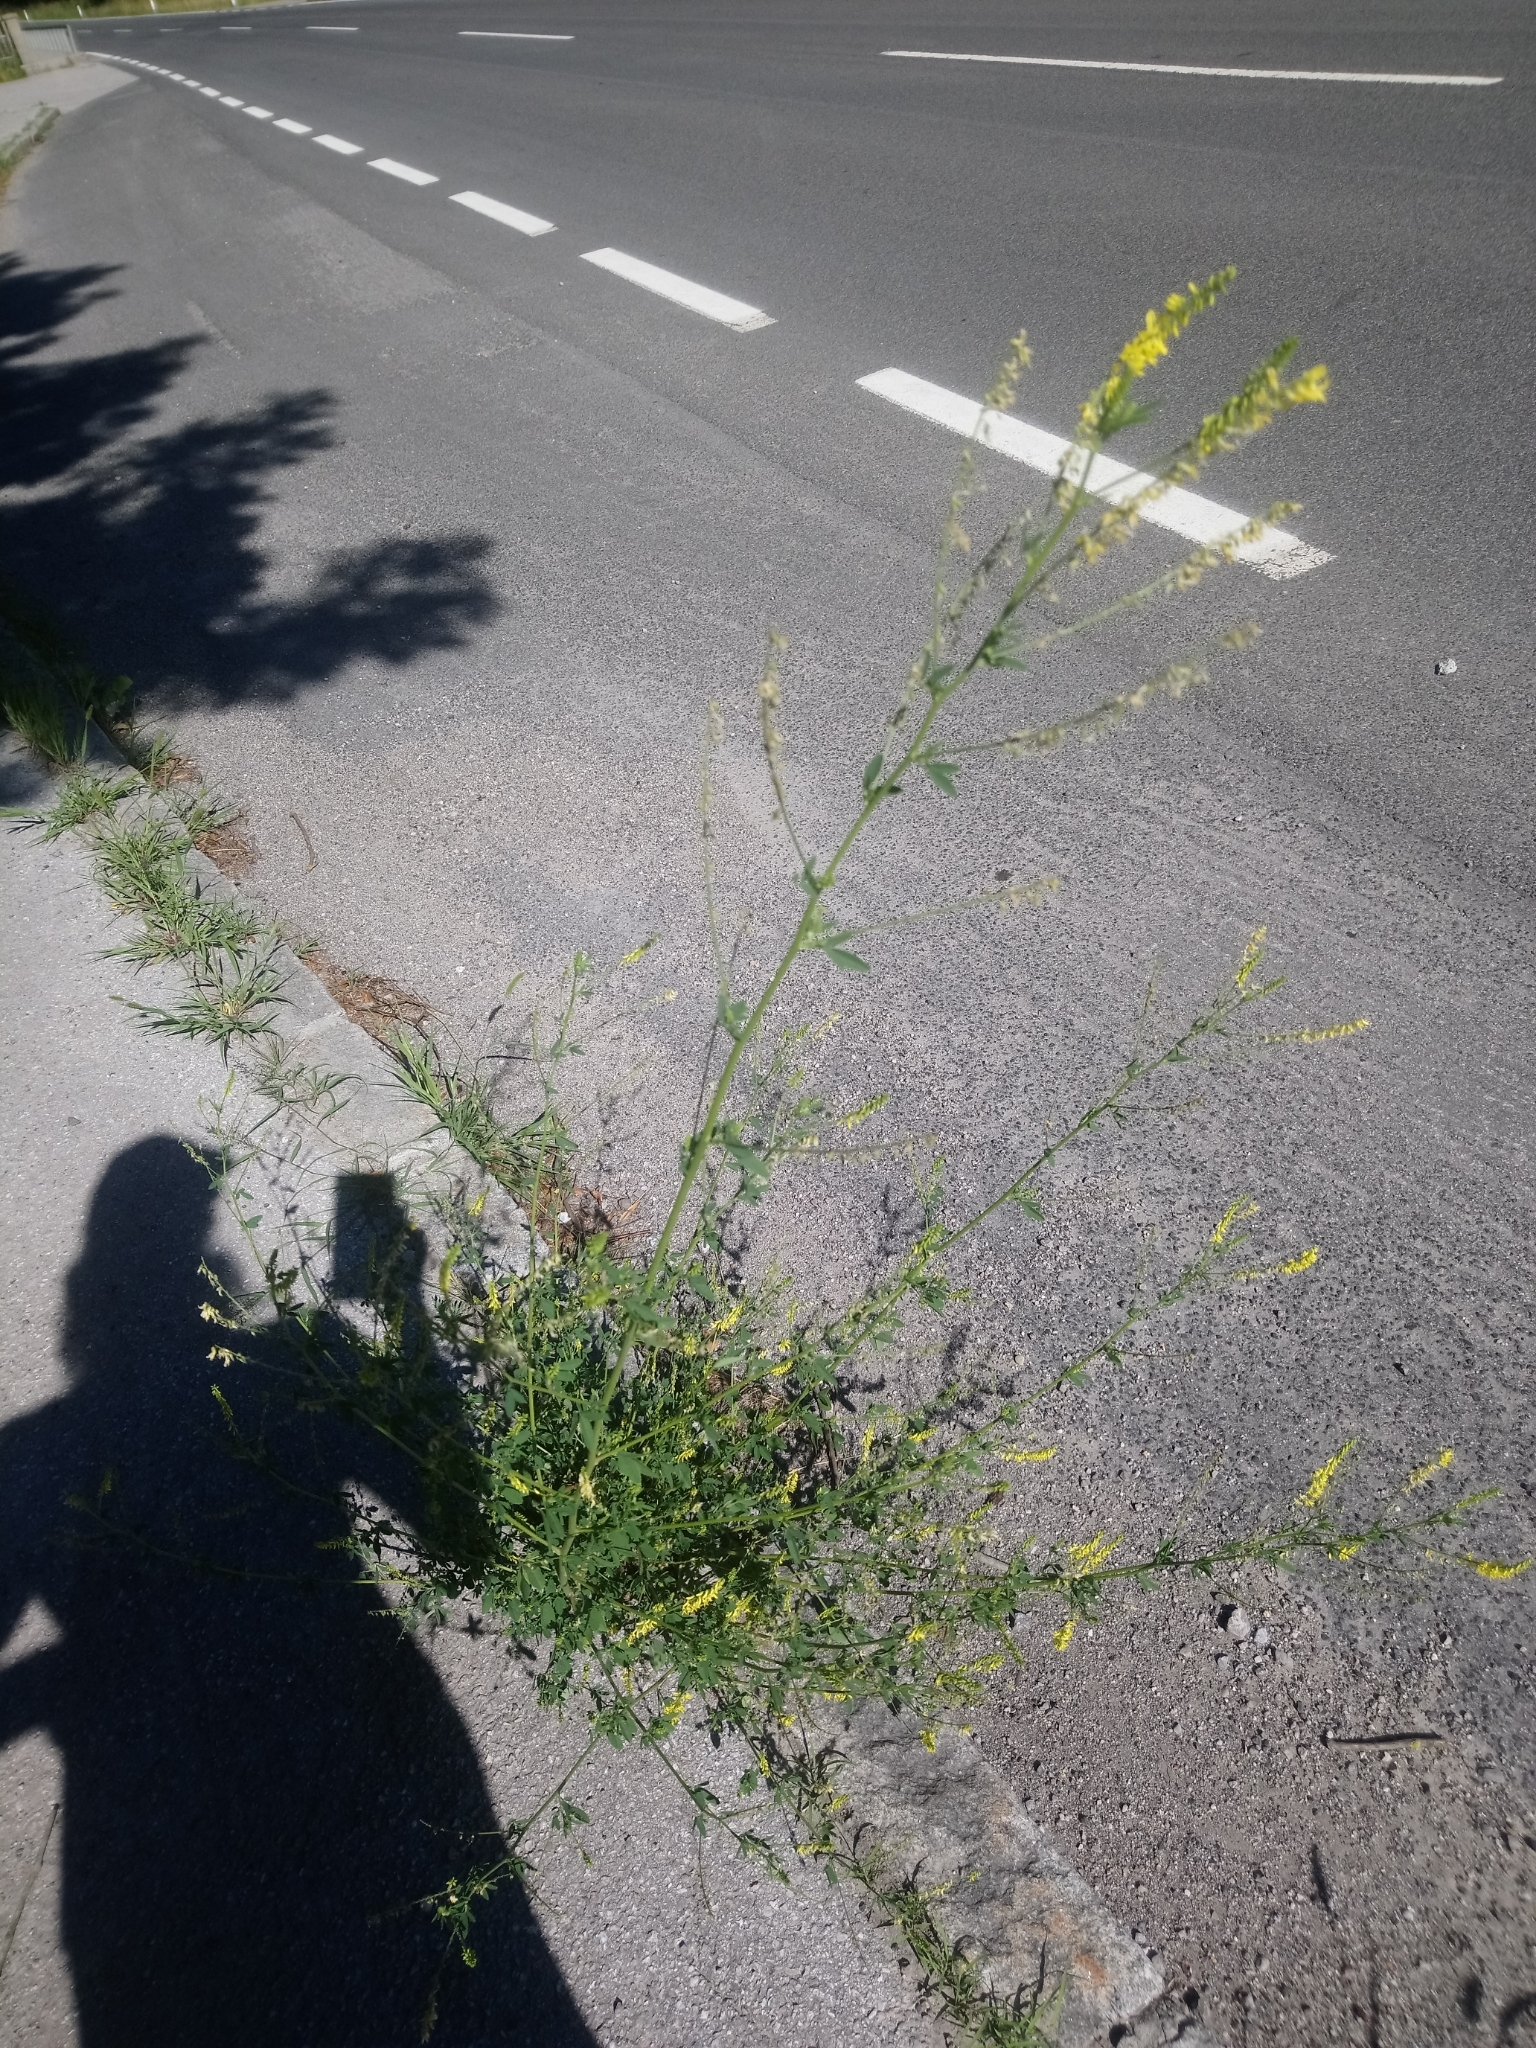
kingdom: Plantae
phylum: Tracheophyta
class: Magnoliopsida
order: Fabales
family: Fabaceae
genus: Melilotus
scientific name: Melilotus officinalis
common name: Sweetclover
